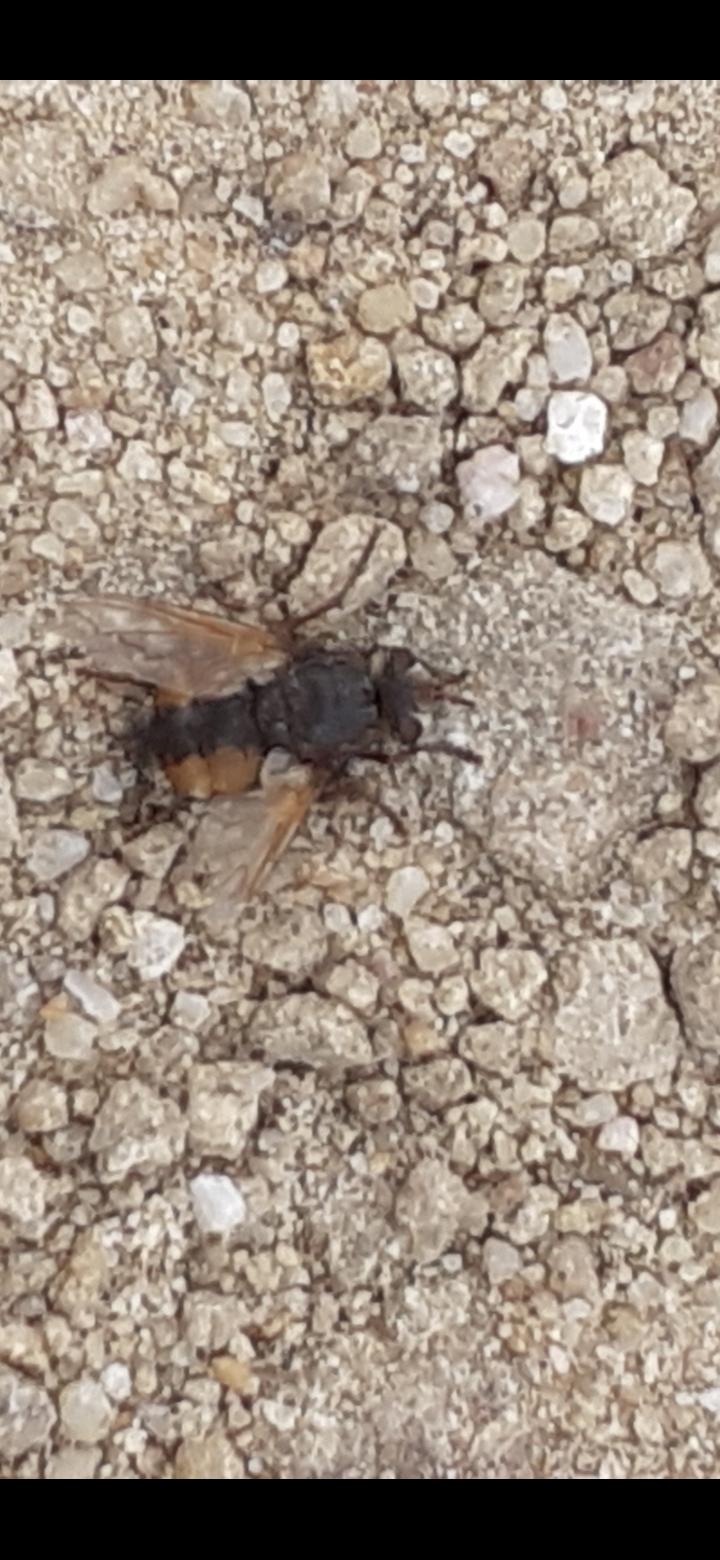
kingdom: Animalia
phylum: Arthropoda
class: Insecta
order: Diptera
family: Tachinidae
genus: Tachina
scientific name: Tachina fera
